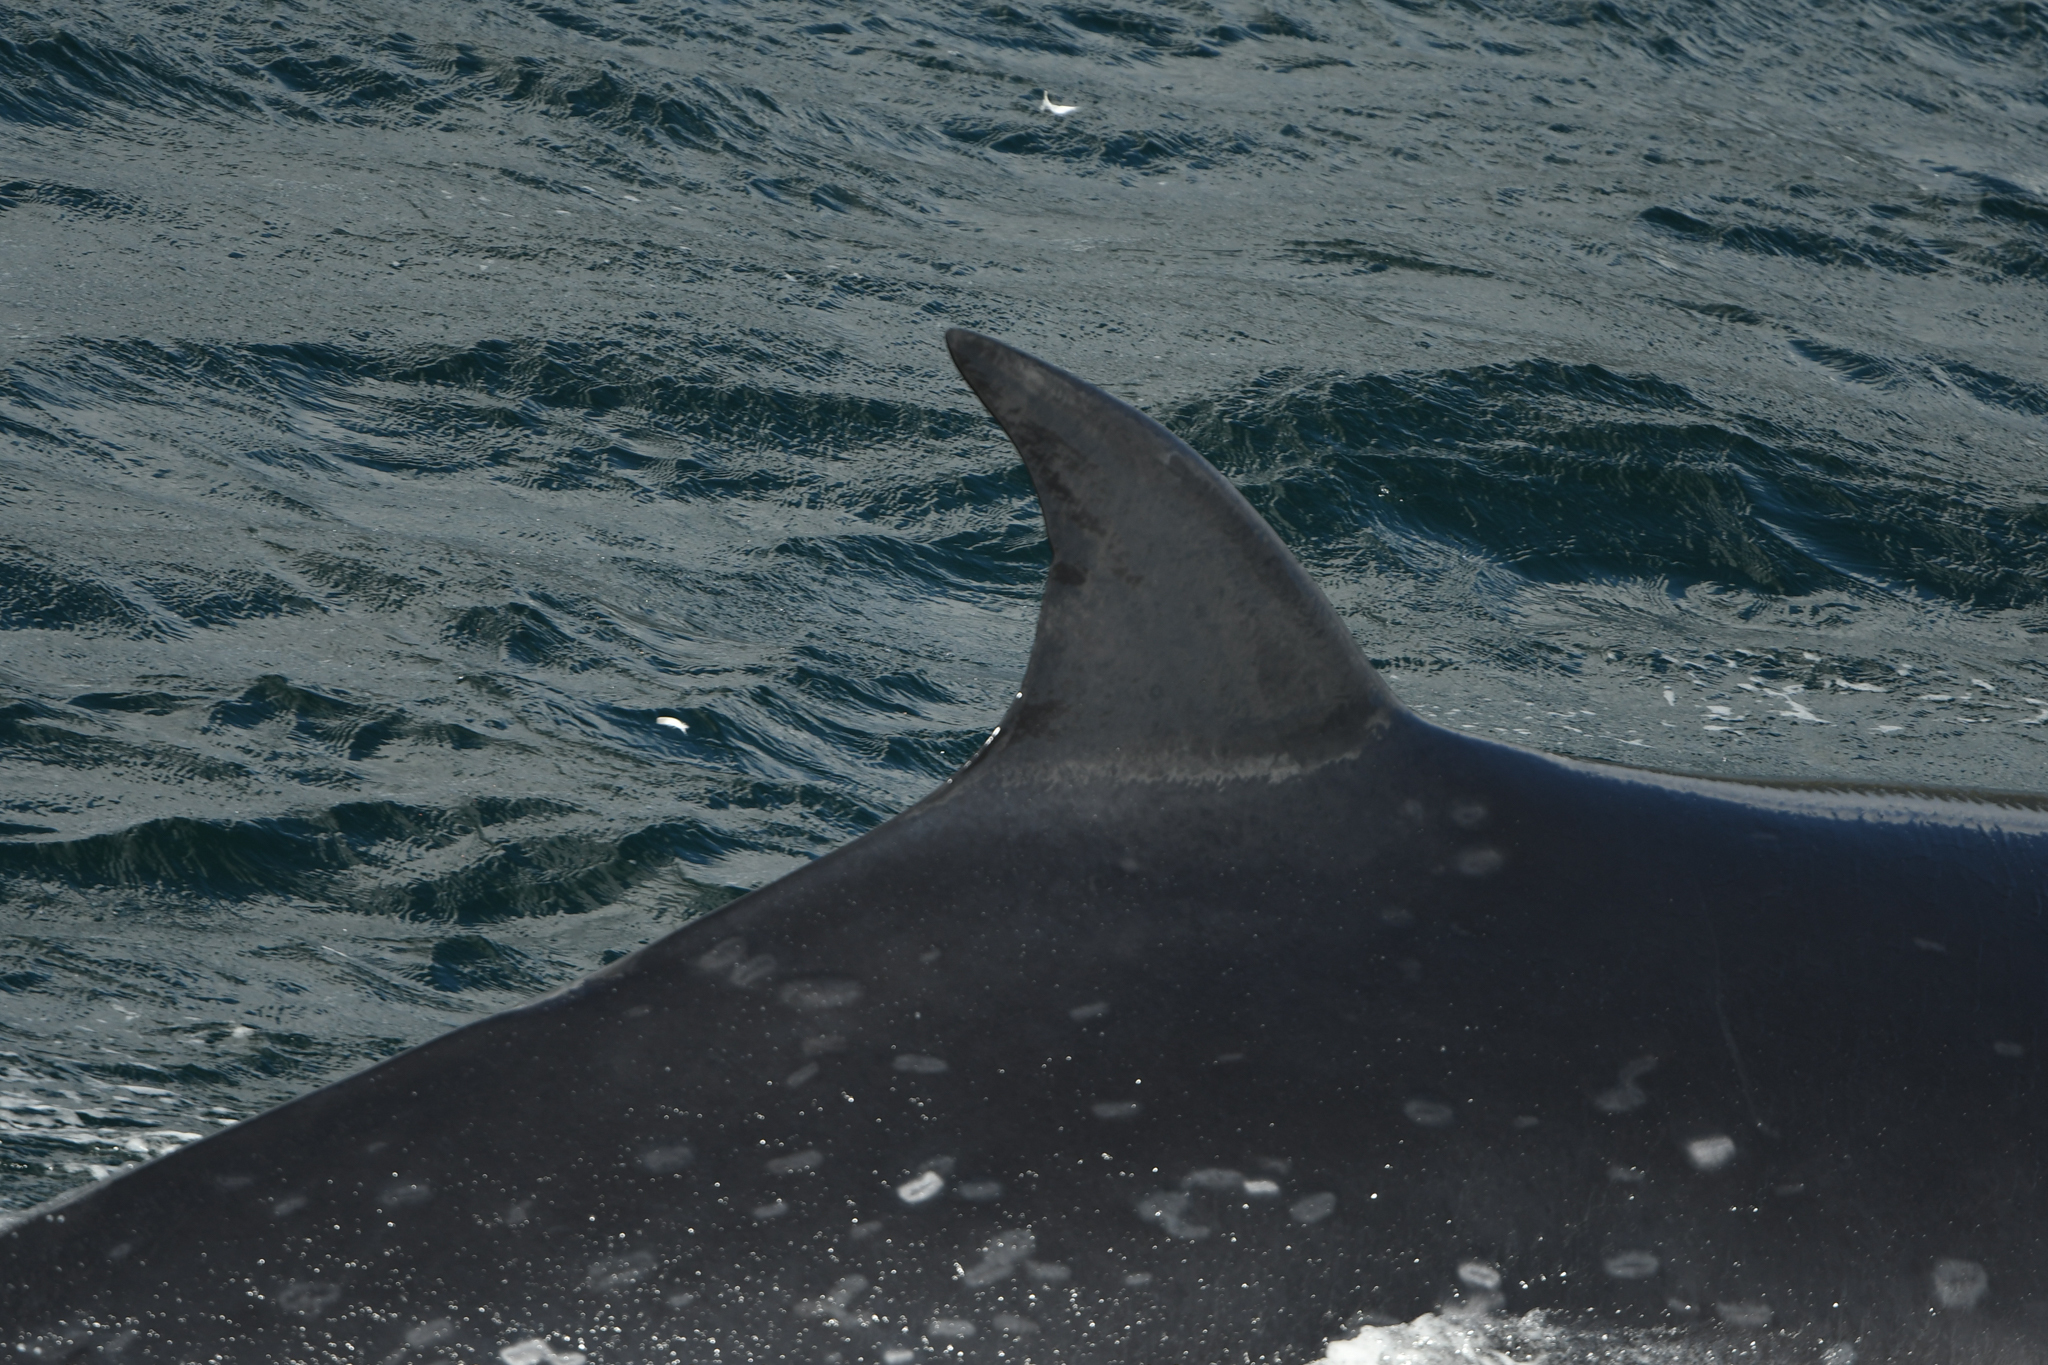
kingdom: Animalia
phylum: Chordata
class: Mammalia
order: Cetacea
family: Balaenopteridae
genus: Balaenoptera
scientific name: Balaenoptera borealis
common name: Sei whale
